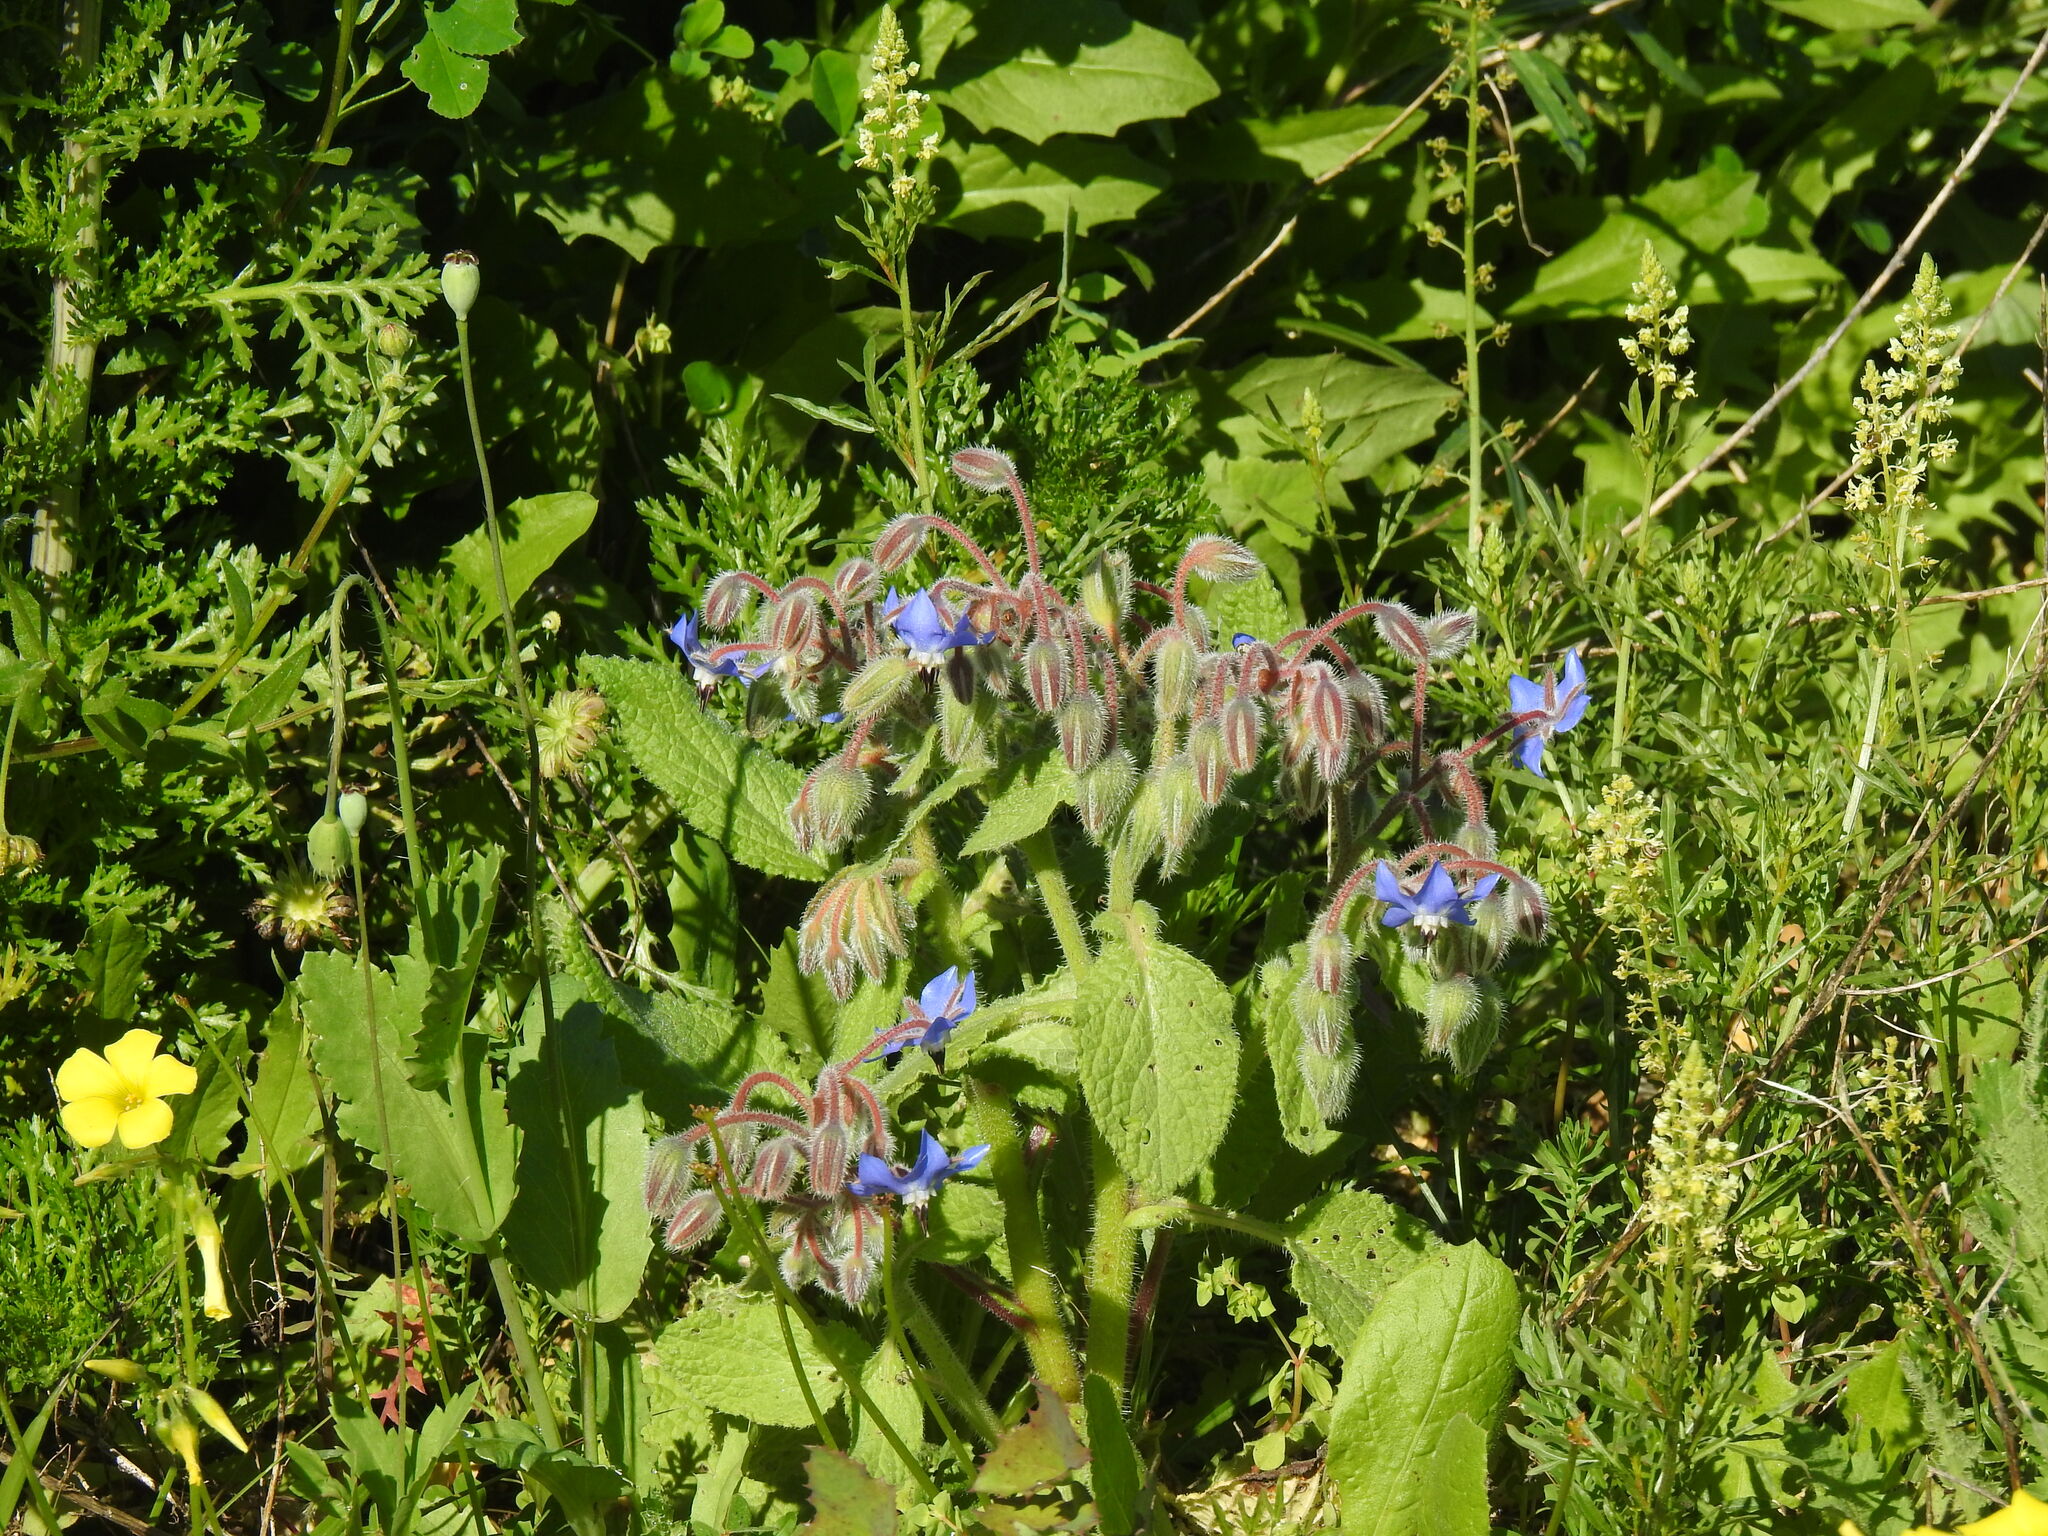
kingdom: Plantae
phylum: Tracheophyta
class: Magnoliopsida
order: Boraginales
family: Boraginaceae
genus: Borago
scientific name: Borago officinalis
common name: Borage
